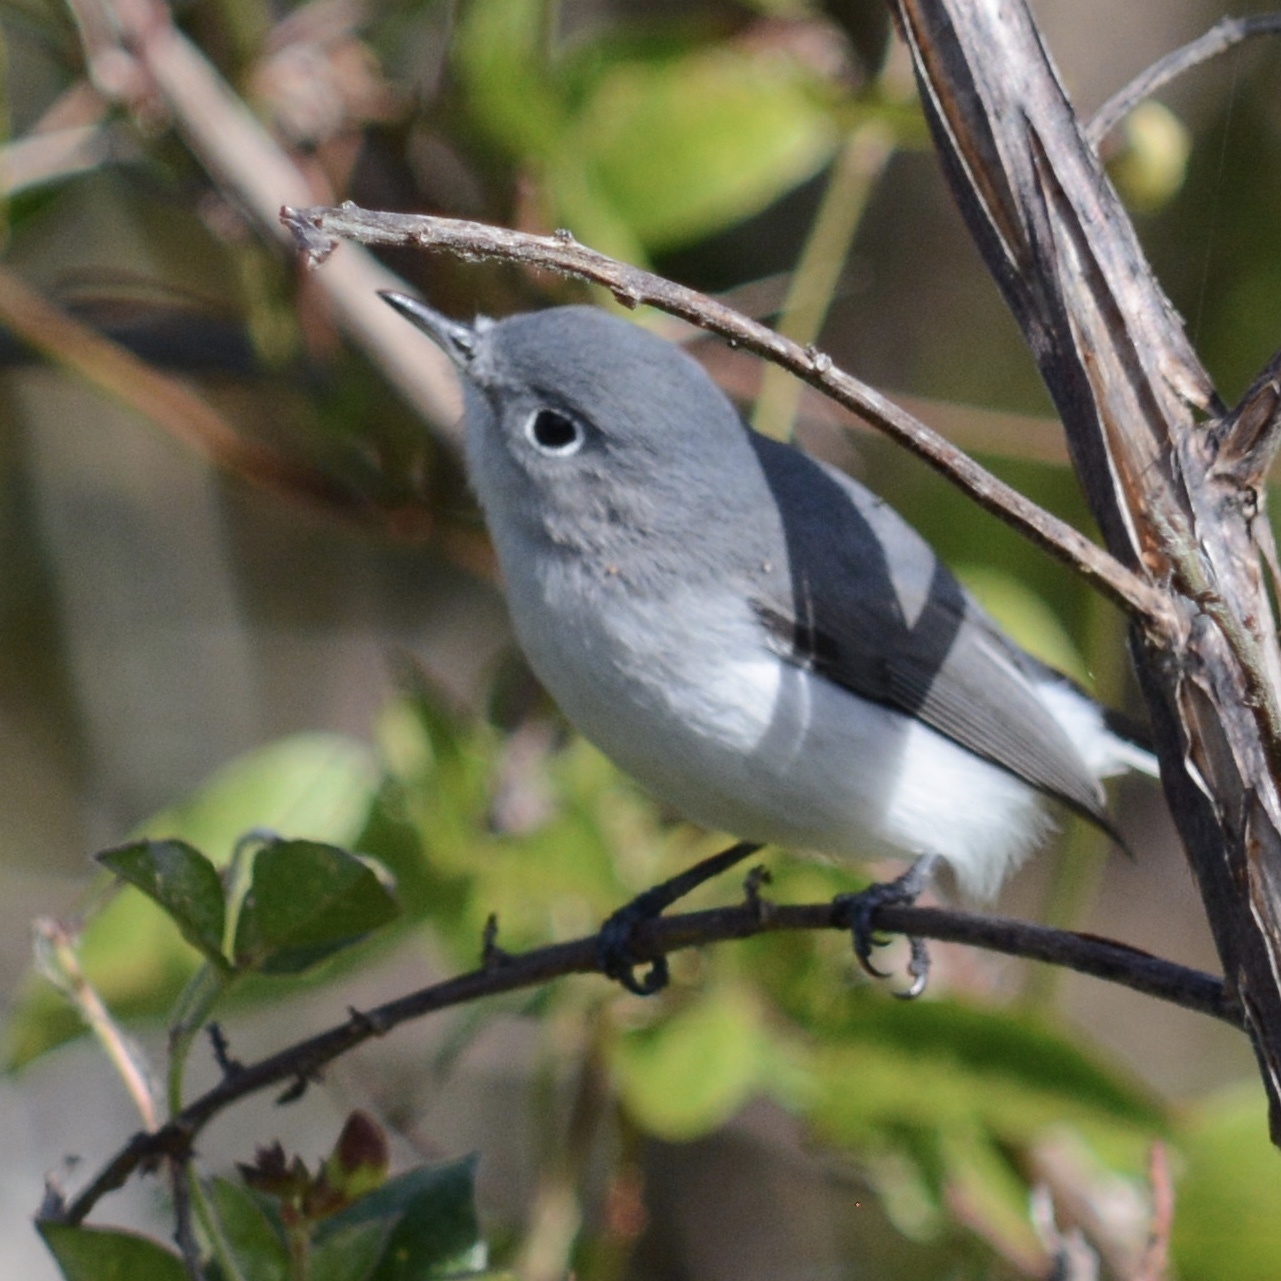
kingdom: Animalia
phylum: Chordata
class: Aves
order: Passeriformes
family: Polioptilidae
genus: Polioptila
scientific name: Polioptila caerulea
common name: Blue-gray gnatcatcher
